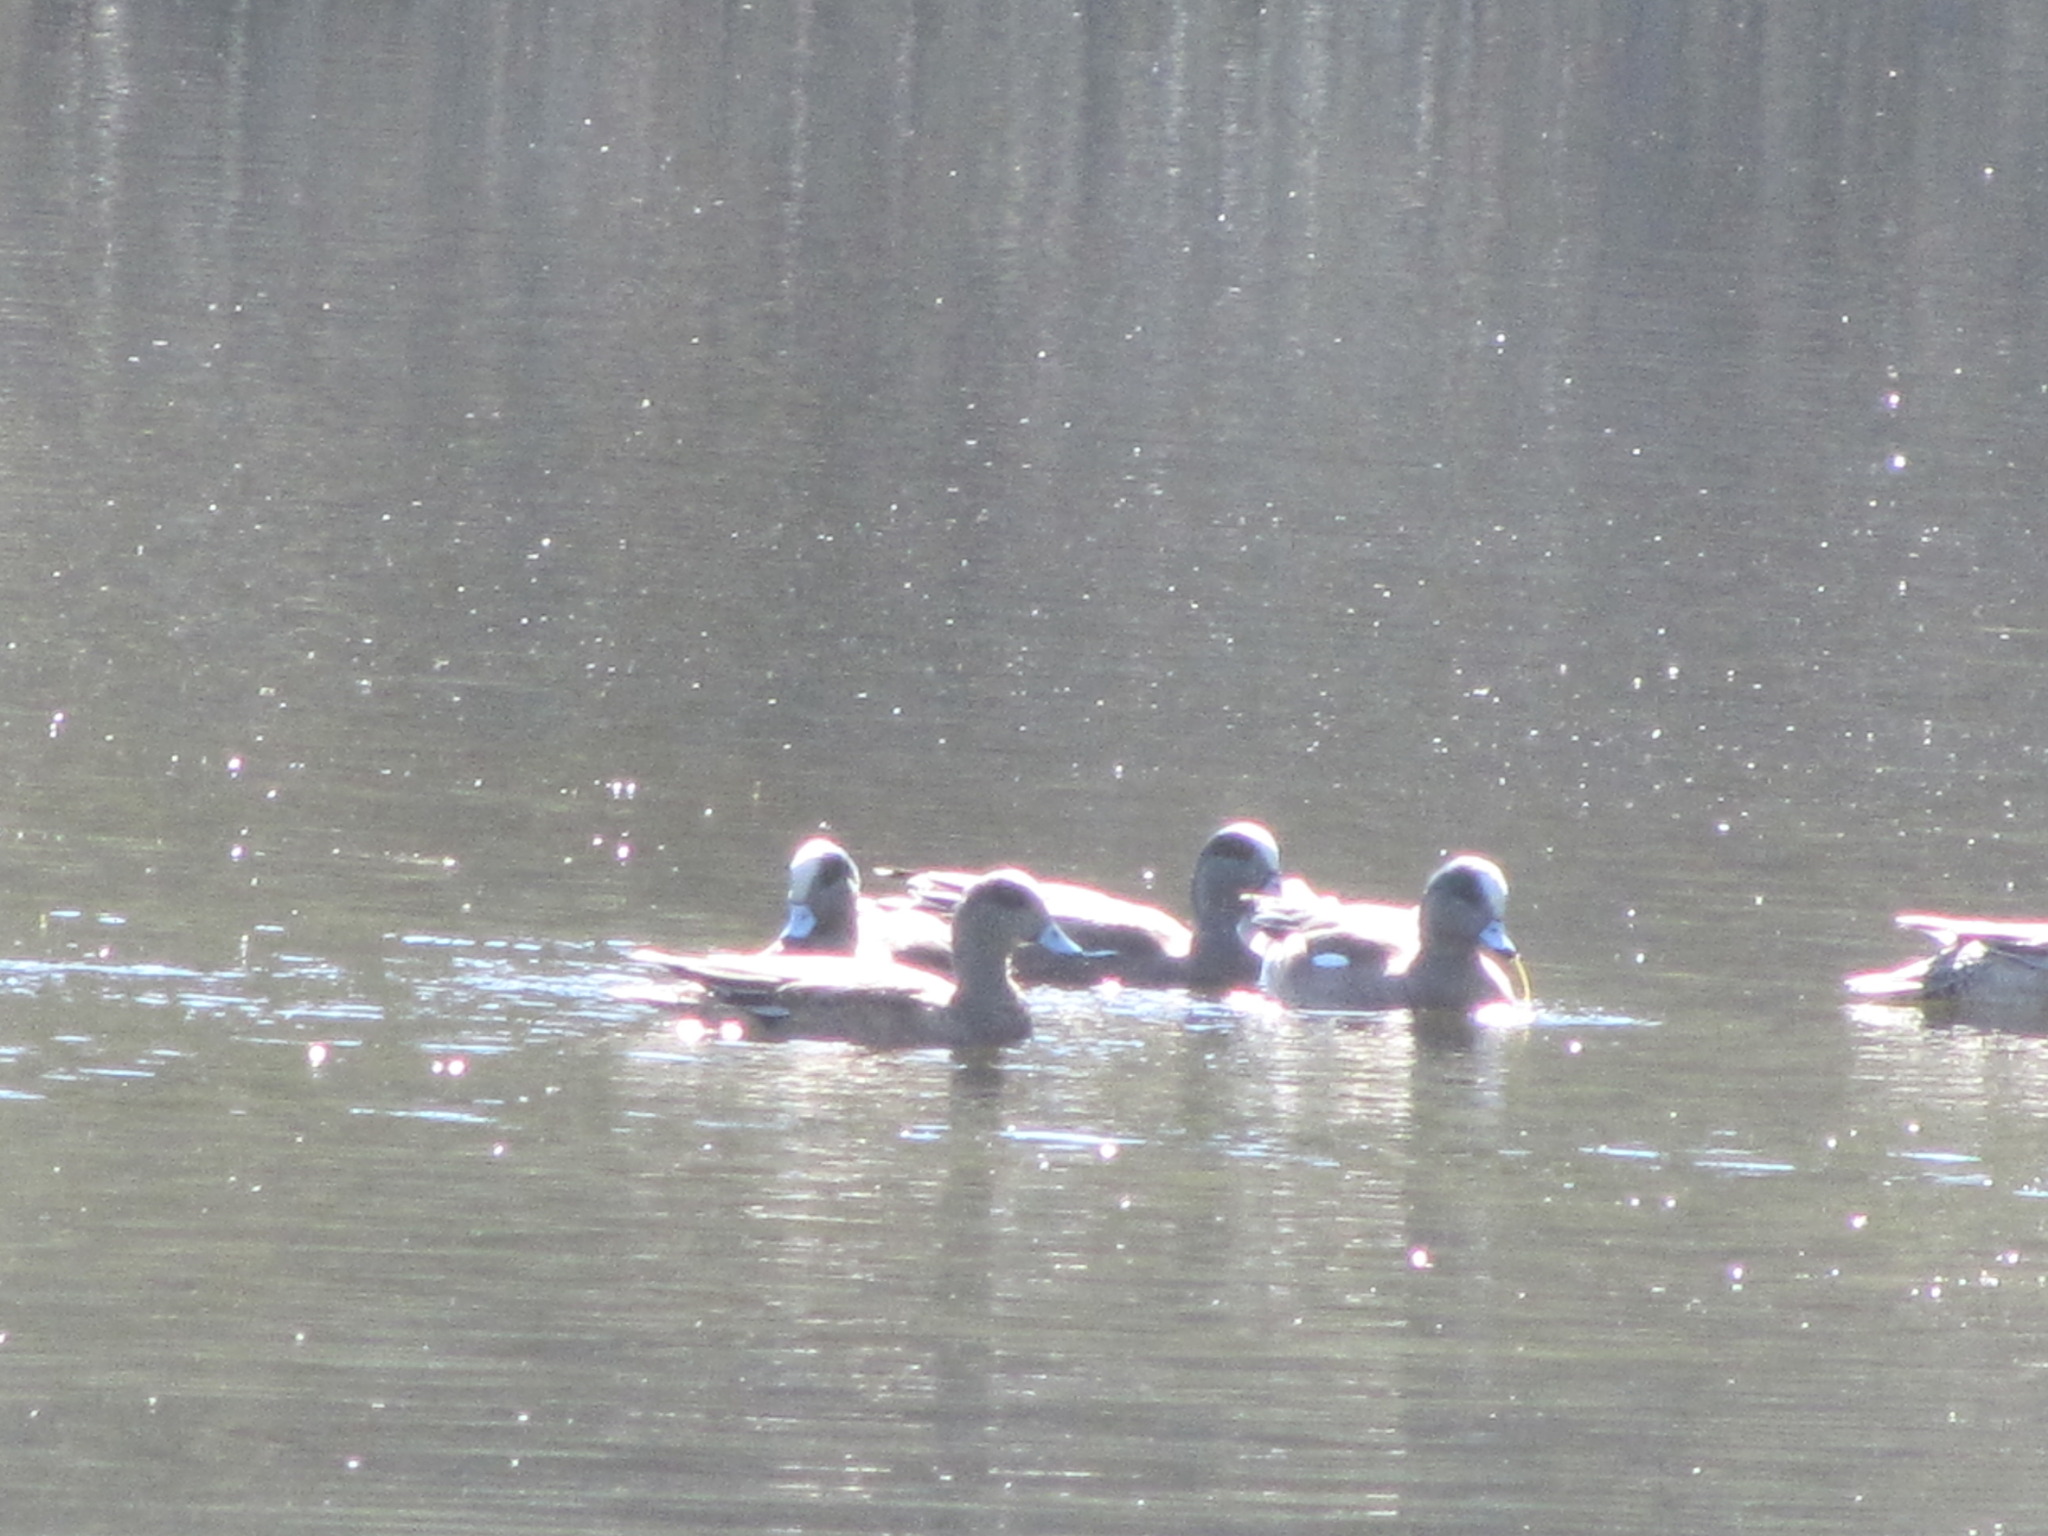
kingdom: Animalia
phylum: Chordata
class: Aves
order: Anseriformes
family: Anatidae
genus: Mareca
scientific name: Mareca americana
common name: American wigeon
